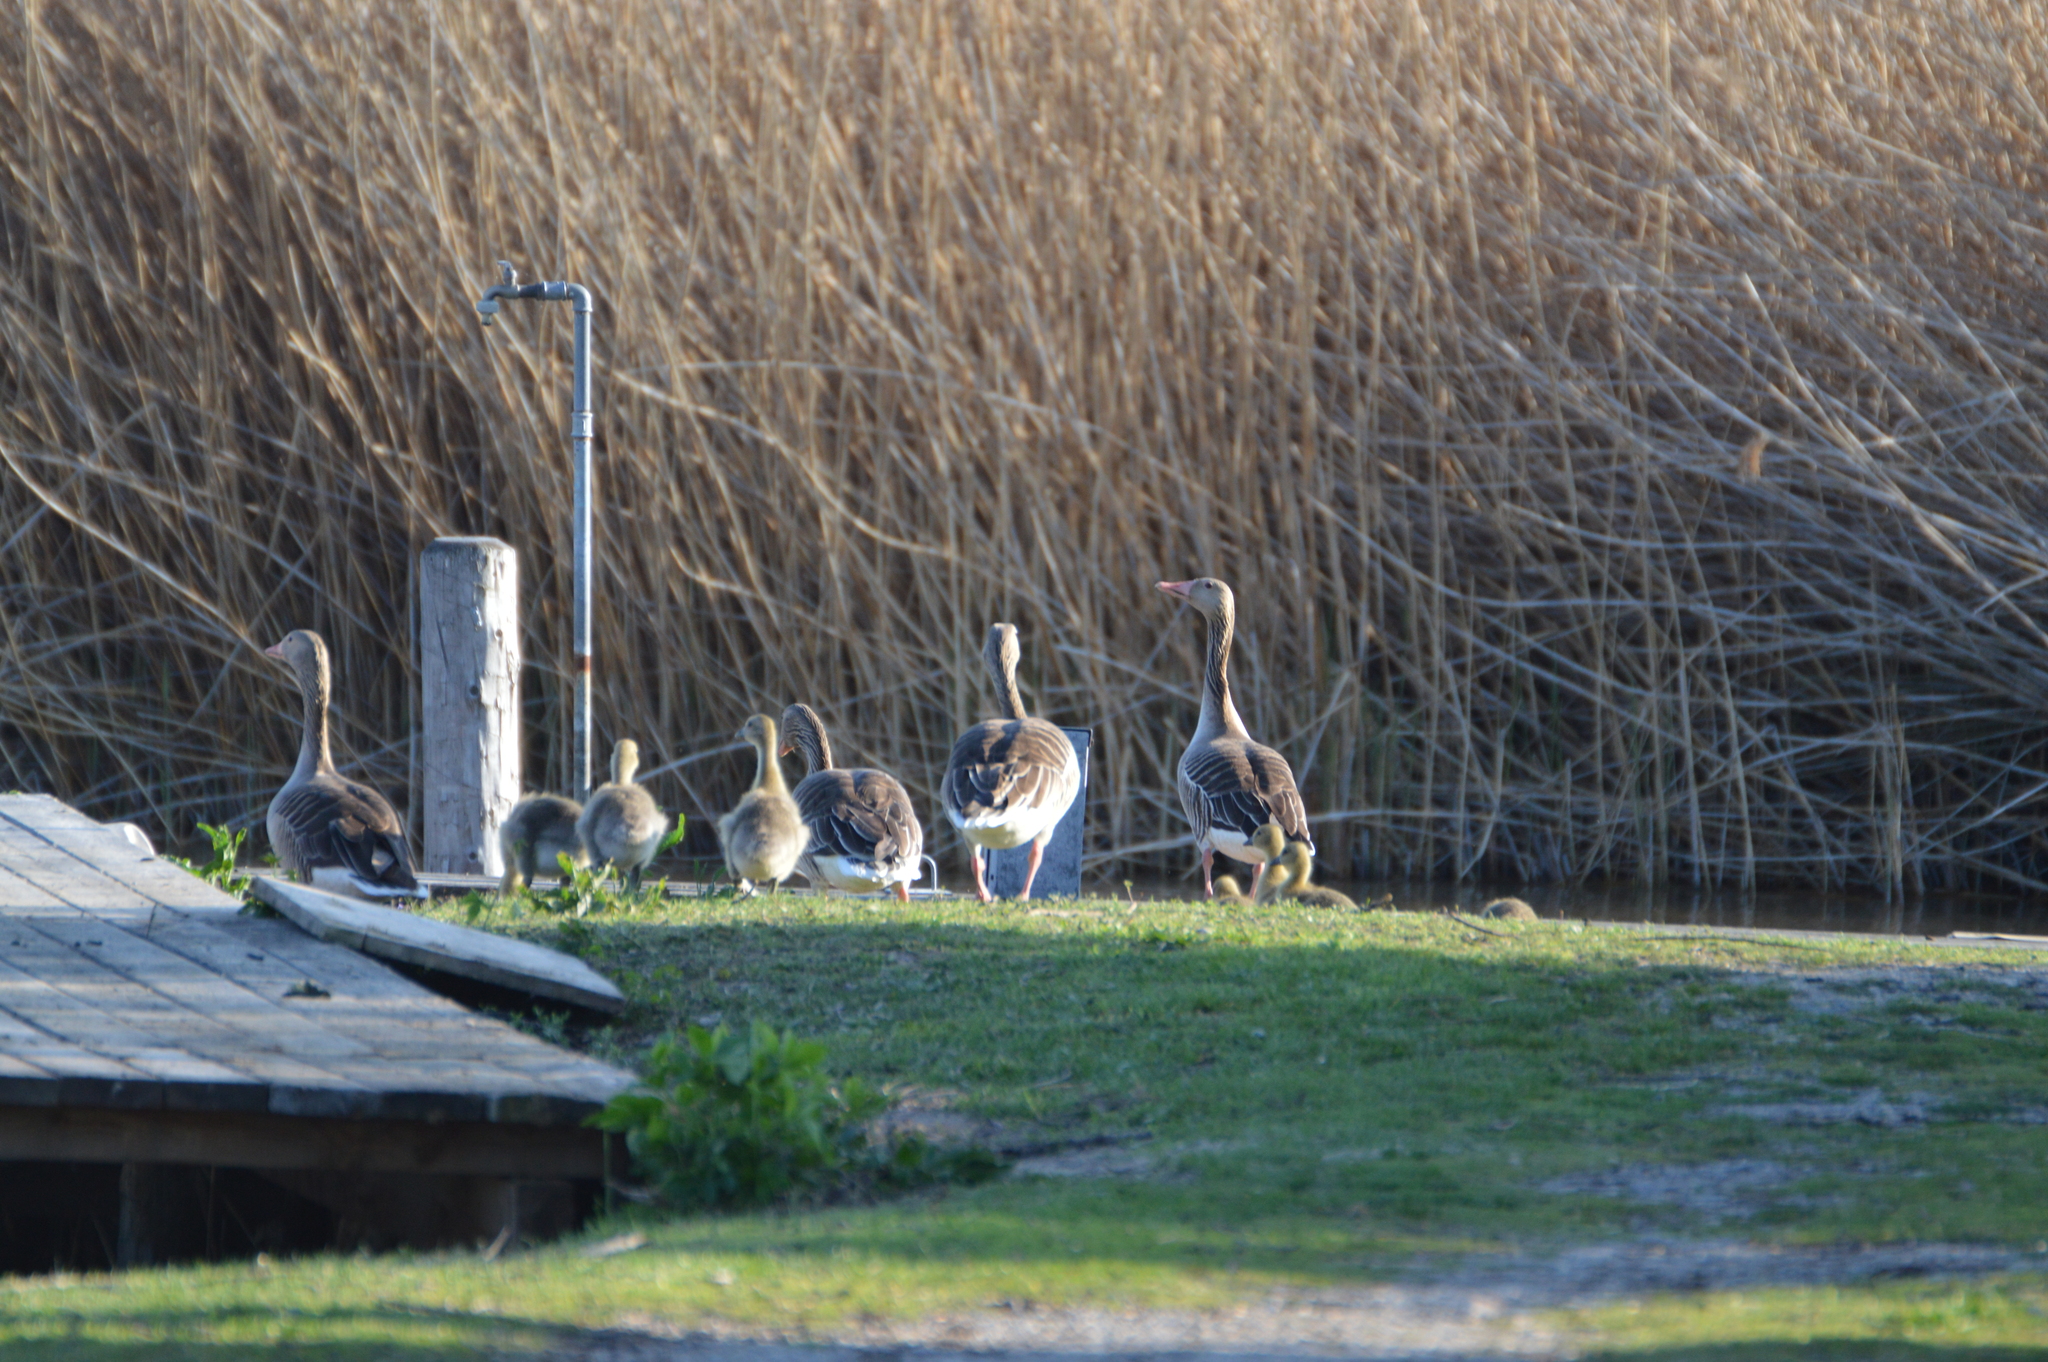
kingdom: Animalia
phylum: Chordata
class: Aves
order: Anseriformes
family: Anatidae
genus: Anser
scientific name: Anser anser
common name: Greylag goose
